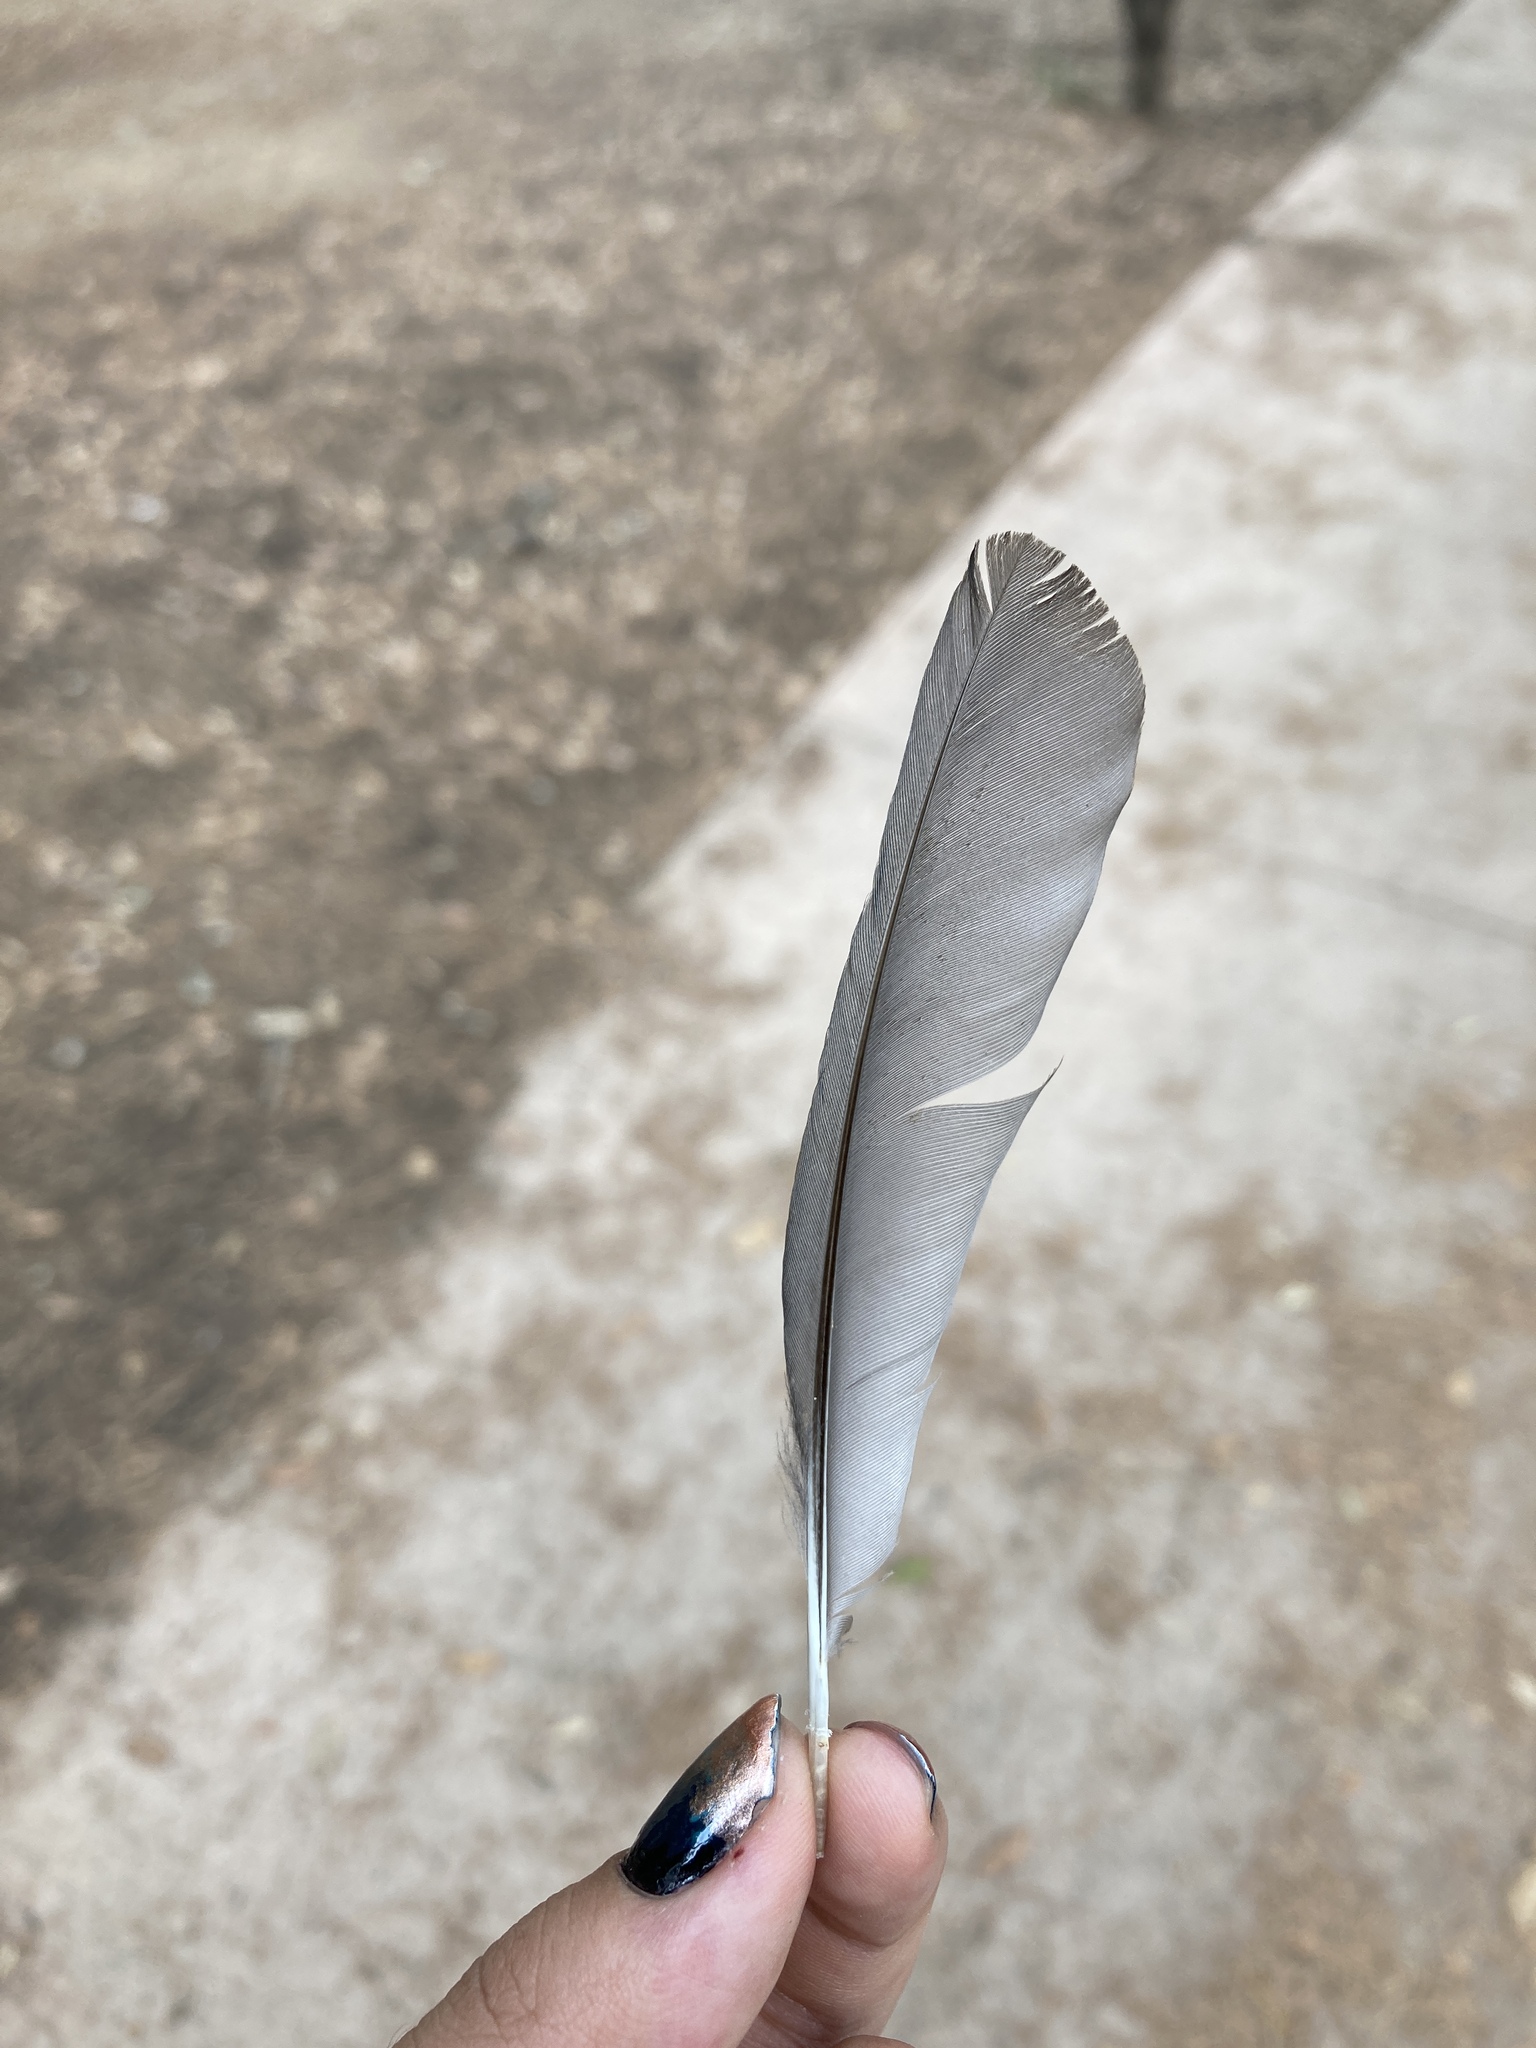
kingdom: Animalia
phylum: Chordata
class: Aves
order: Passeriformes
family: Turdidae
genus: Turdus
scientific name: Turdus merula
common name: Common blackbird
